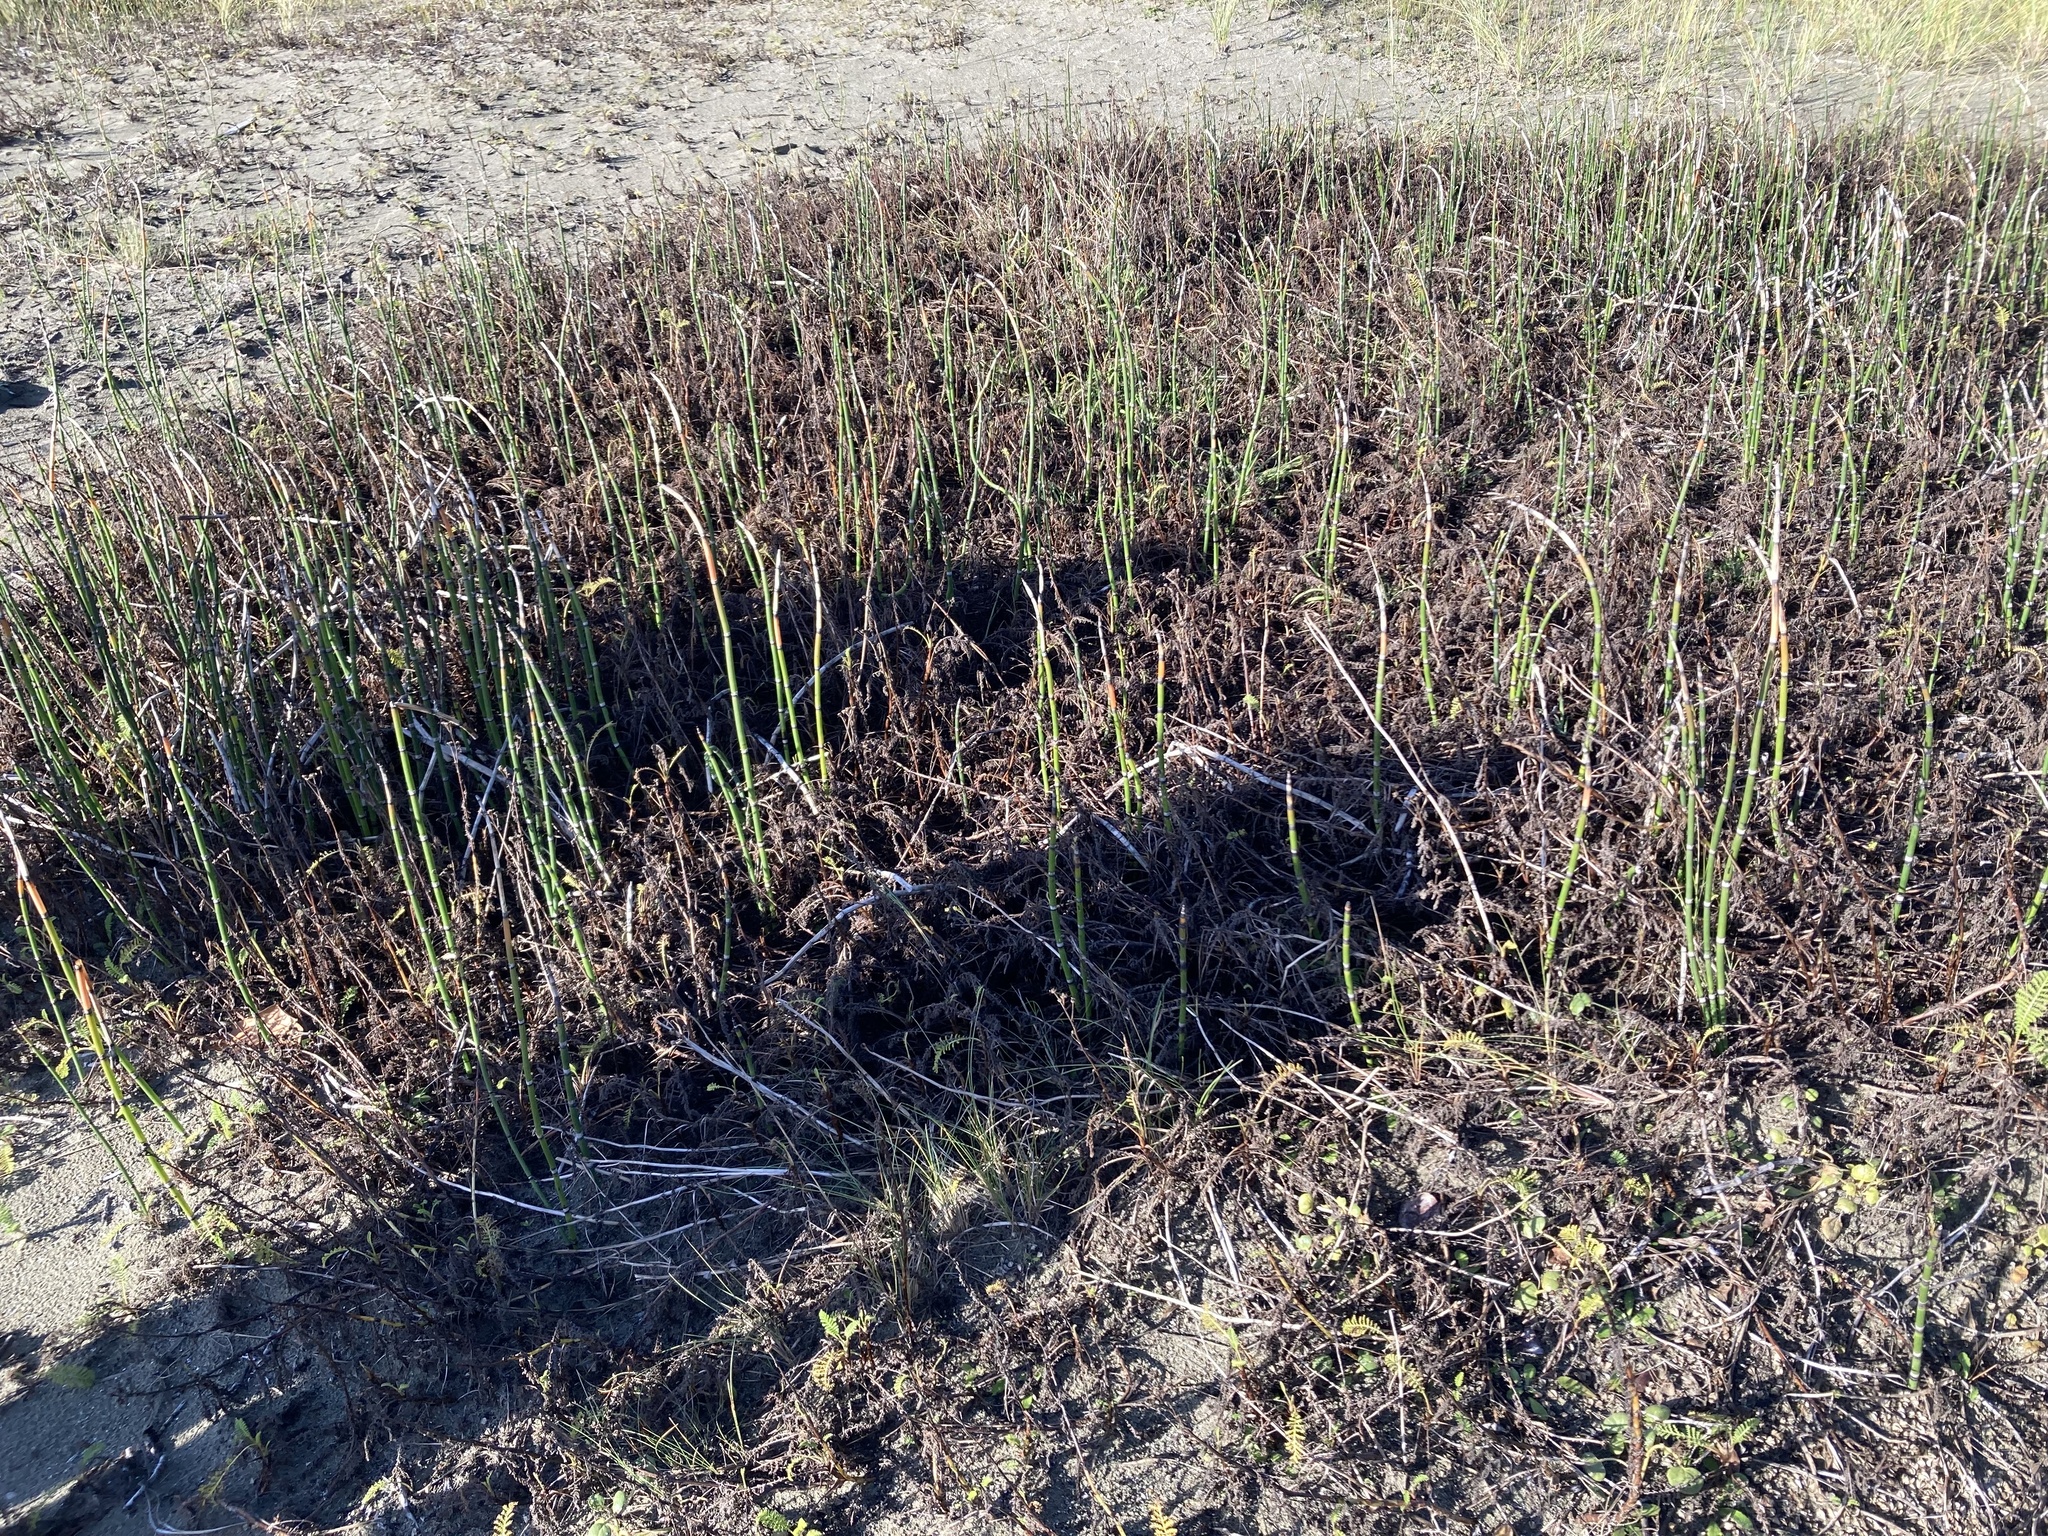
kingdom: Plantae
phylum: Tracheophyta
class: Magnoliopsida
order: Asterales
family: Asteraceae
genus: Tanacetum
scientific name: Tanacetum bipinnatum
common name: Dwarf tansy
